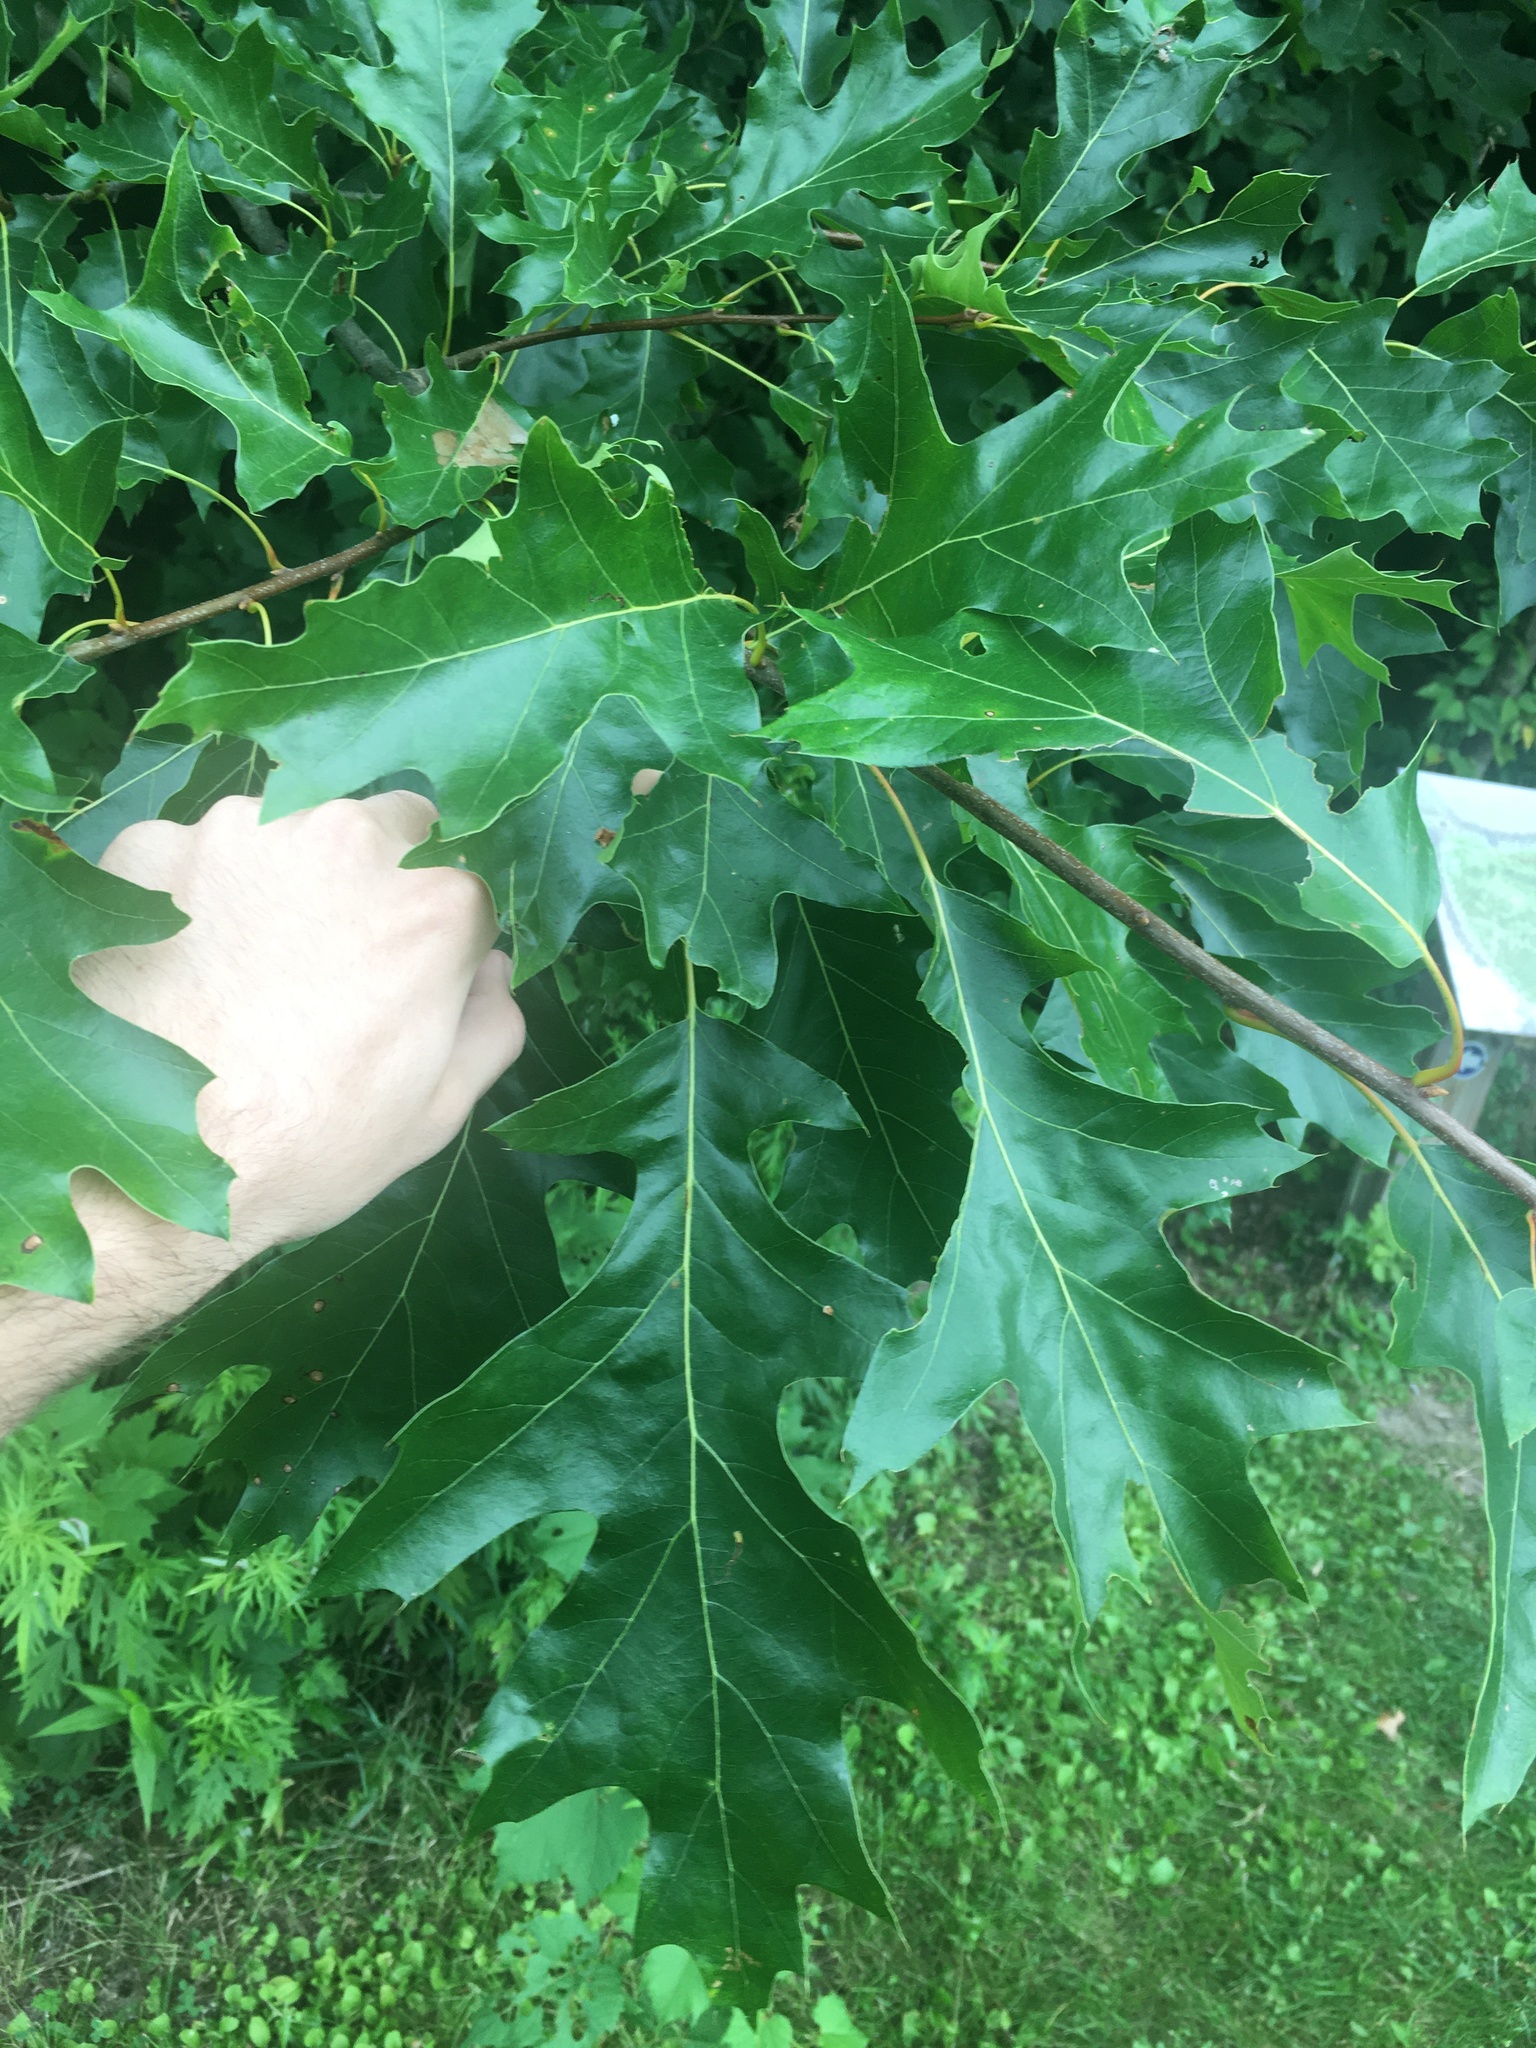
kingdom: Plantae
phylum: Tracheophyta
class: Magnoliopsida
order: Fagales
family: Fagaceae
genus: Quercus
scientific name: Quercus rubra
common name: Red oak
